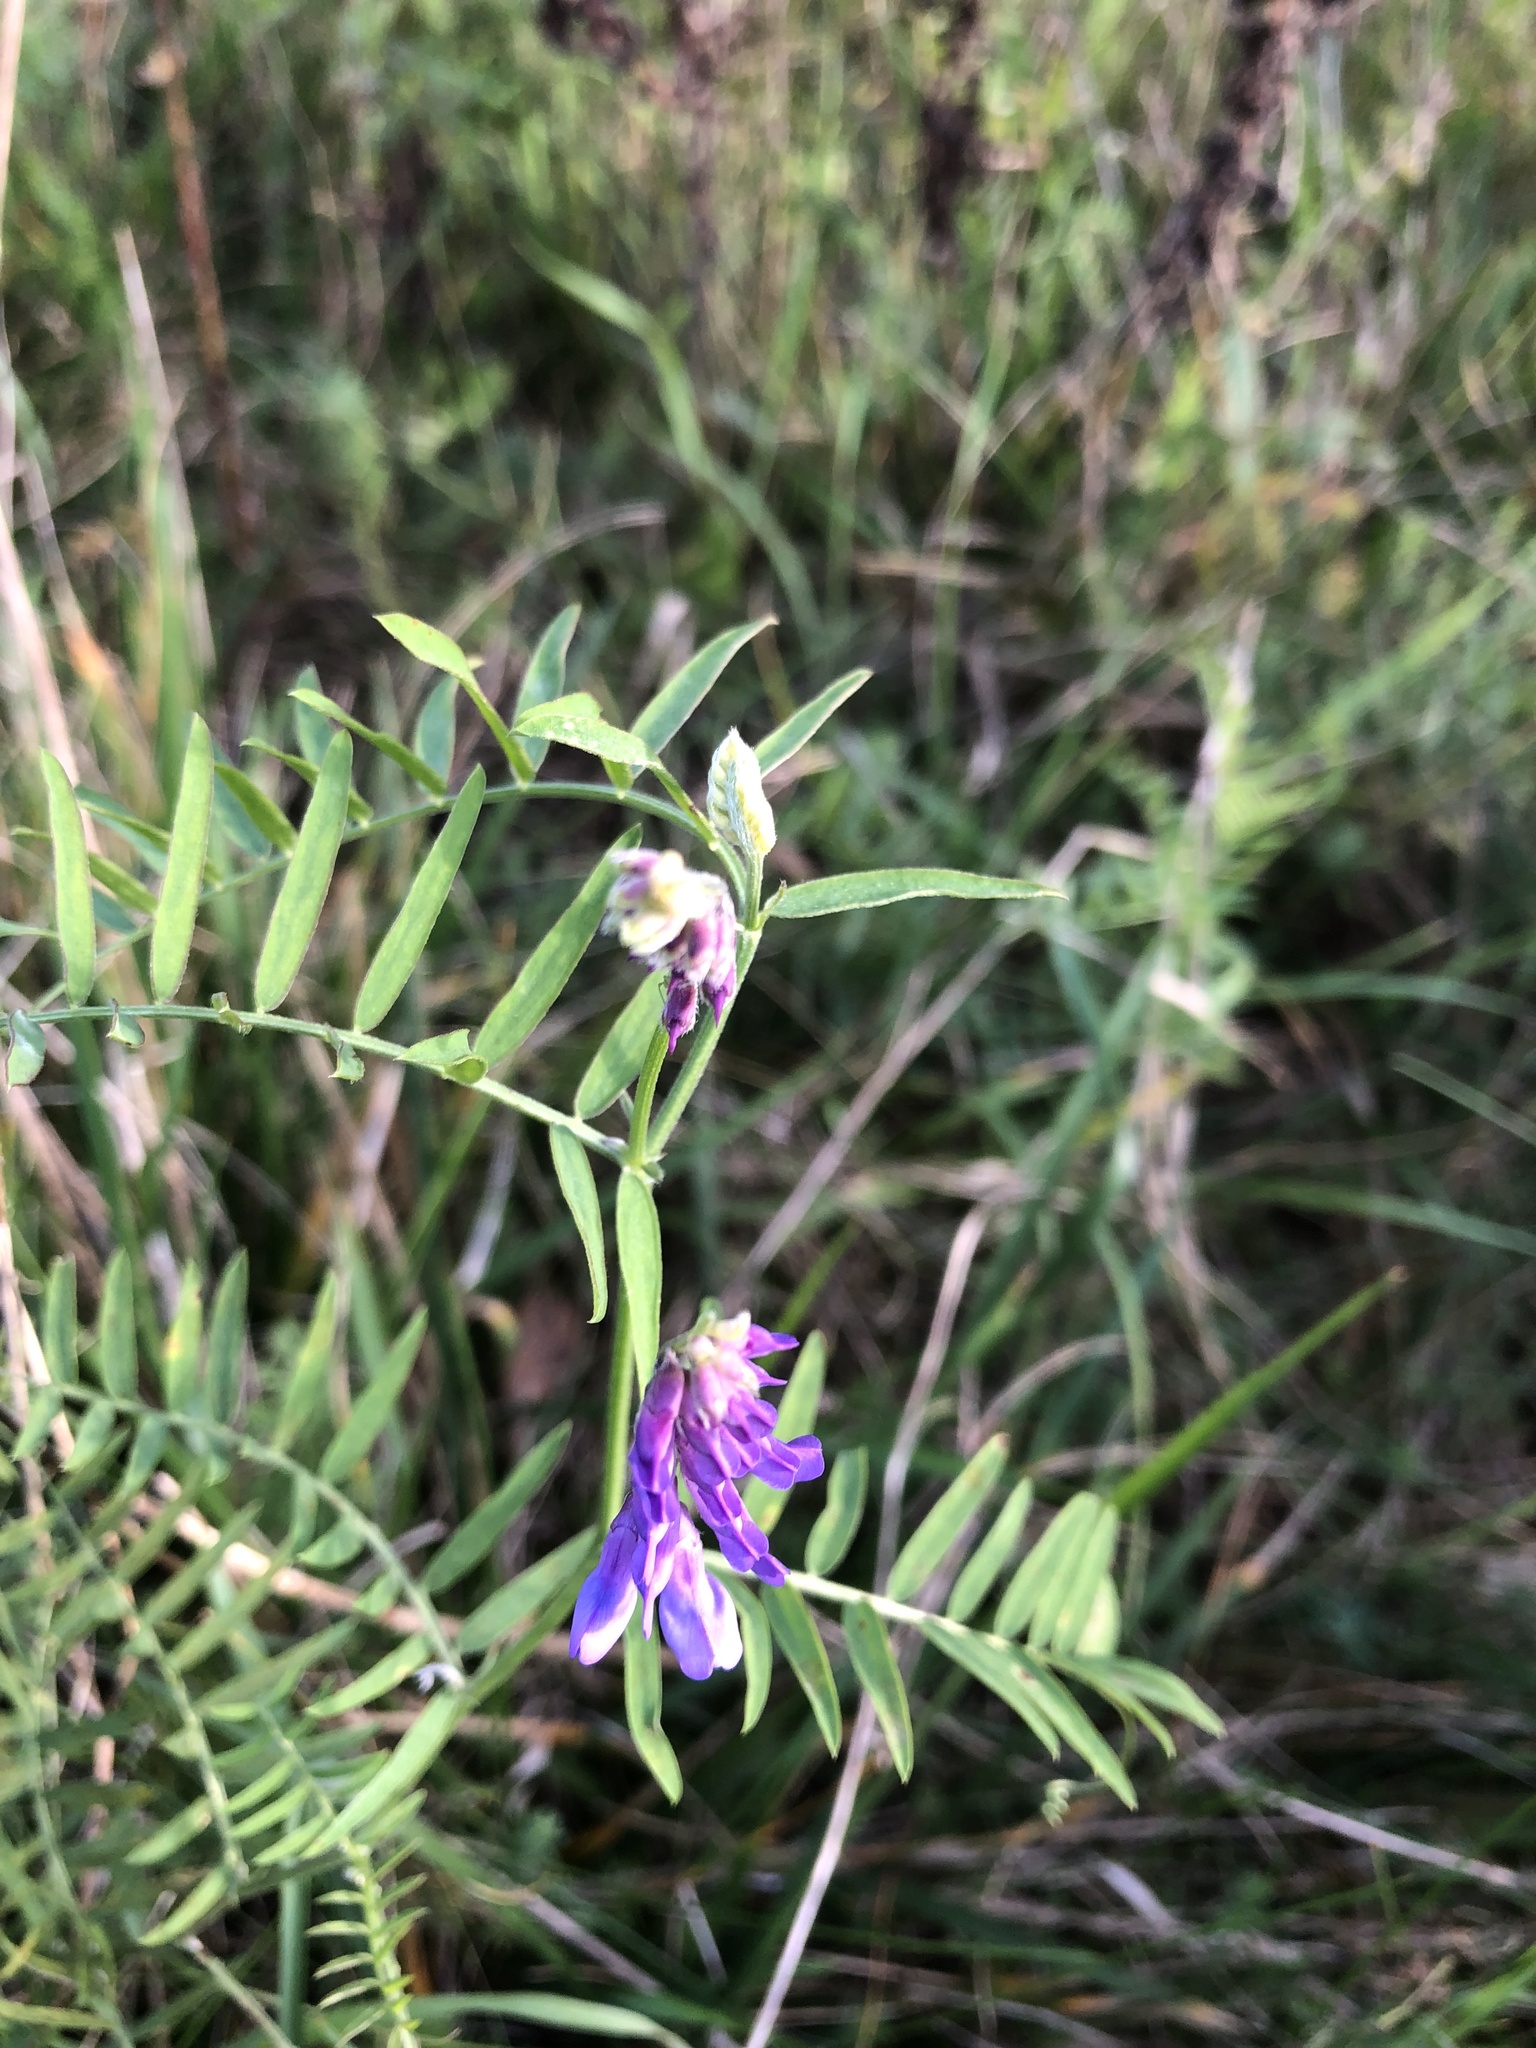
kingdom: Plantae
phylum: Tracheophyta
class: Magnoliopsida
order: Fabales
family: Fabaceae
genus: Vicia
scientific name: Vicia cracca
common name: Bird vetch
